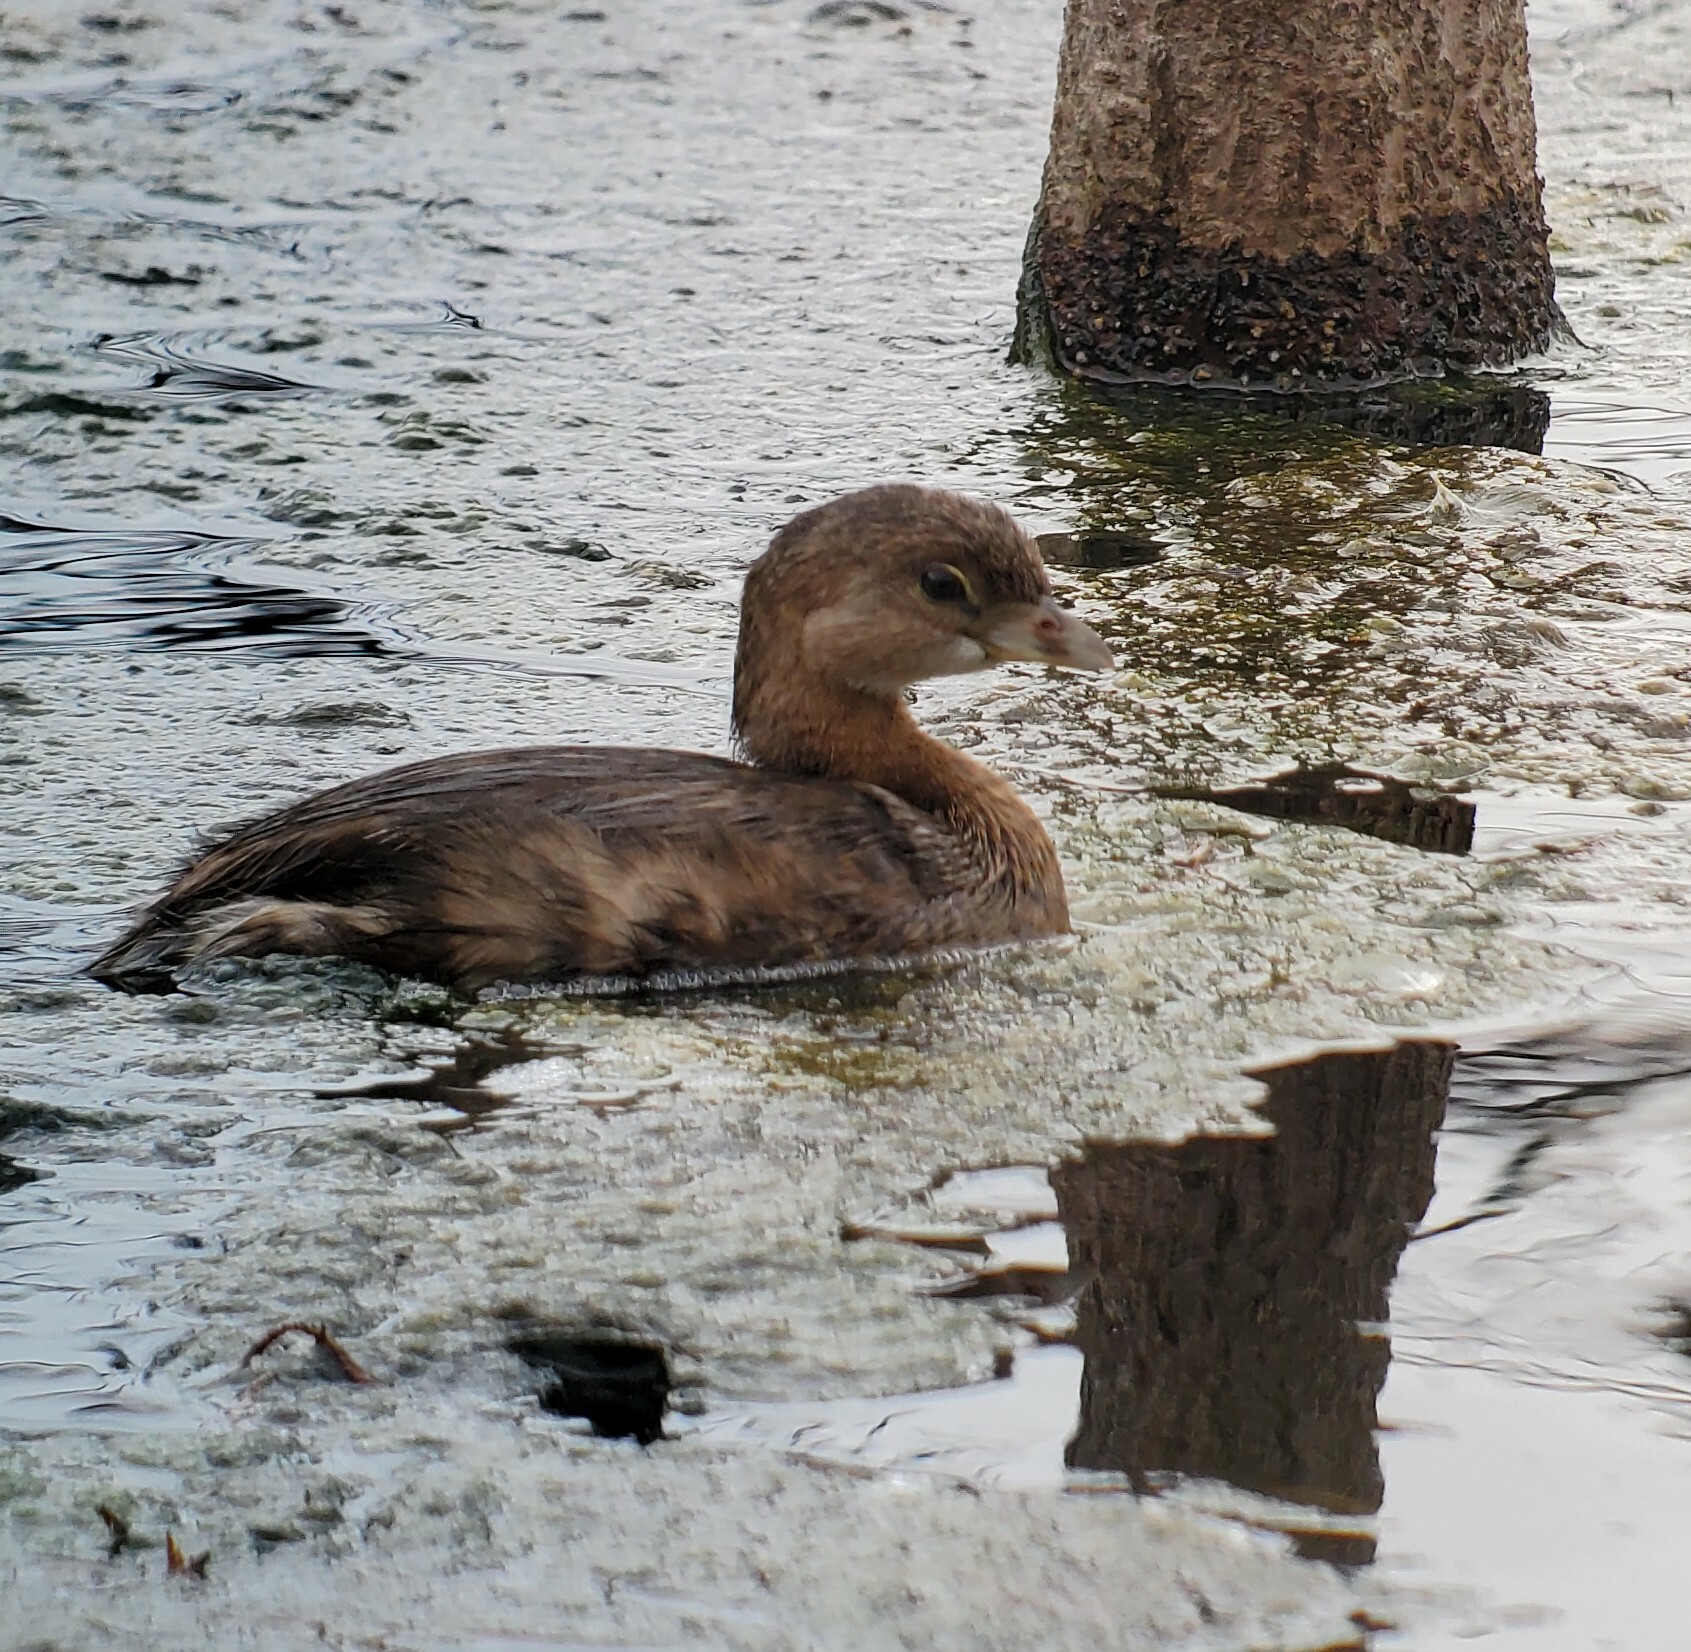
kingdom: Animalia
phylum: Chordata
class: Aves
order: Podicipediformes
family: Podicipedidae
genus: Podilymbus
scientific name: Podilymbus podiceps
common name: Pied-billed grebe
